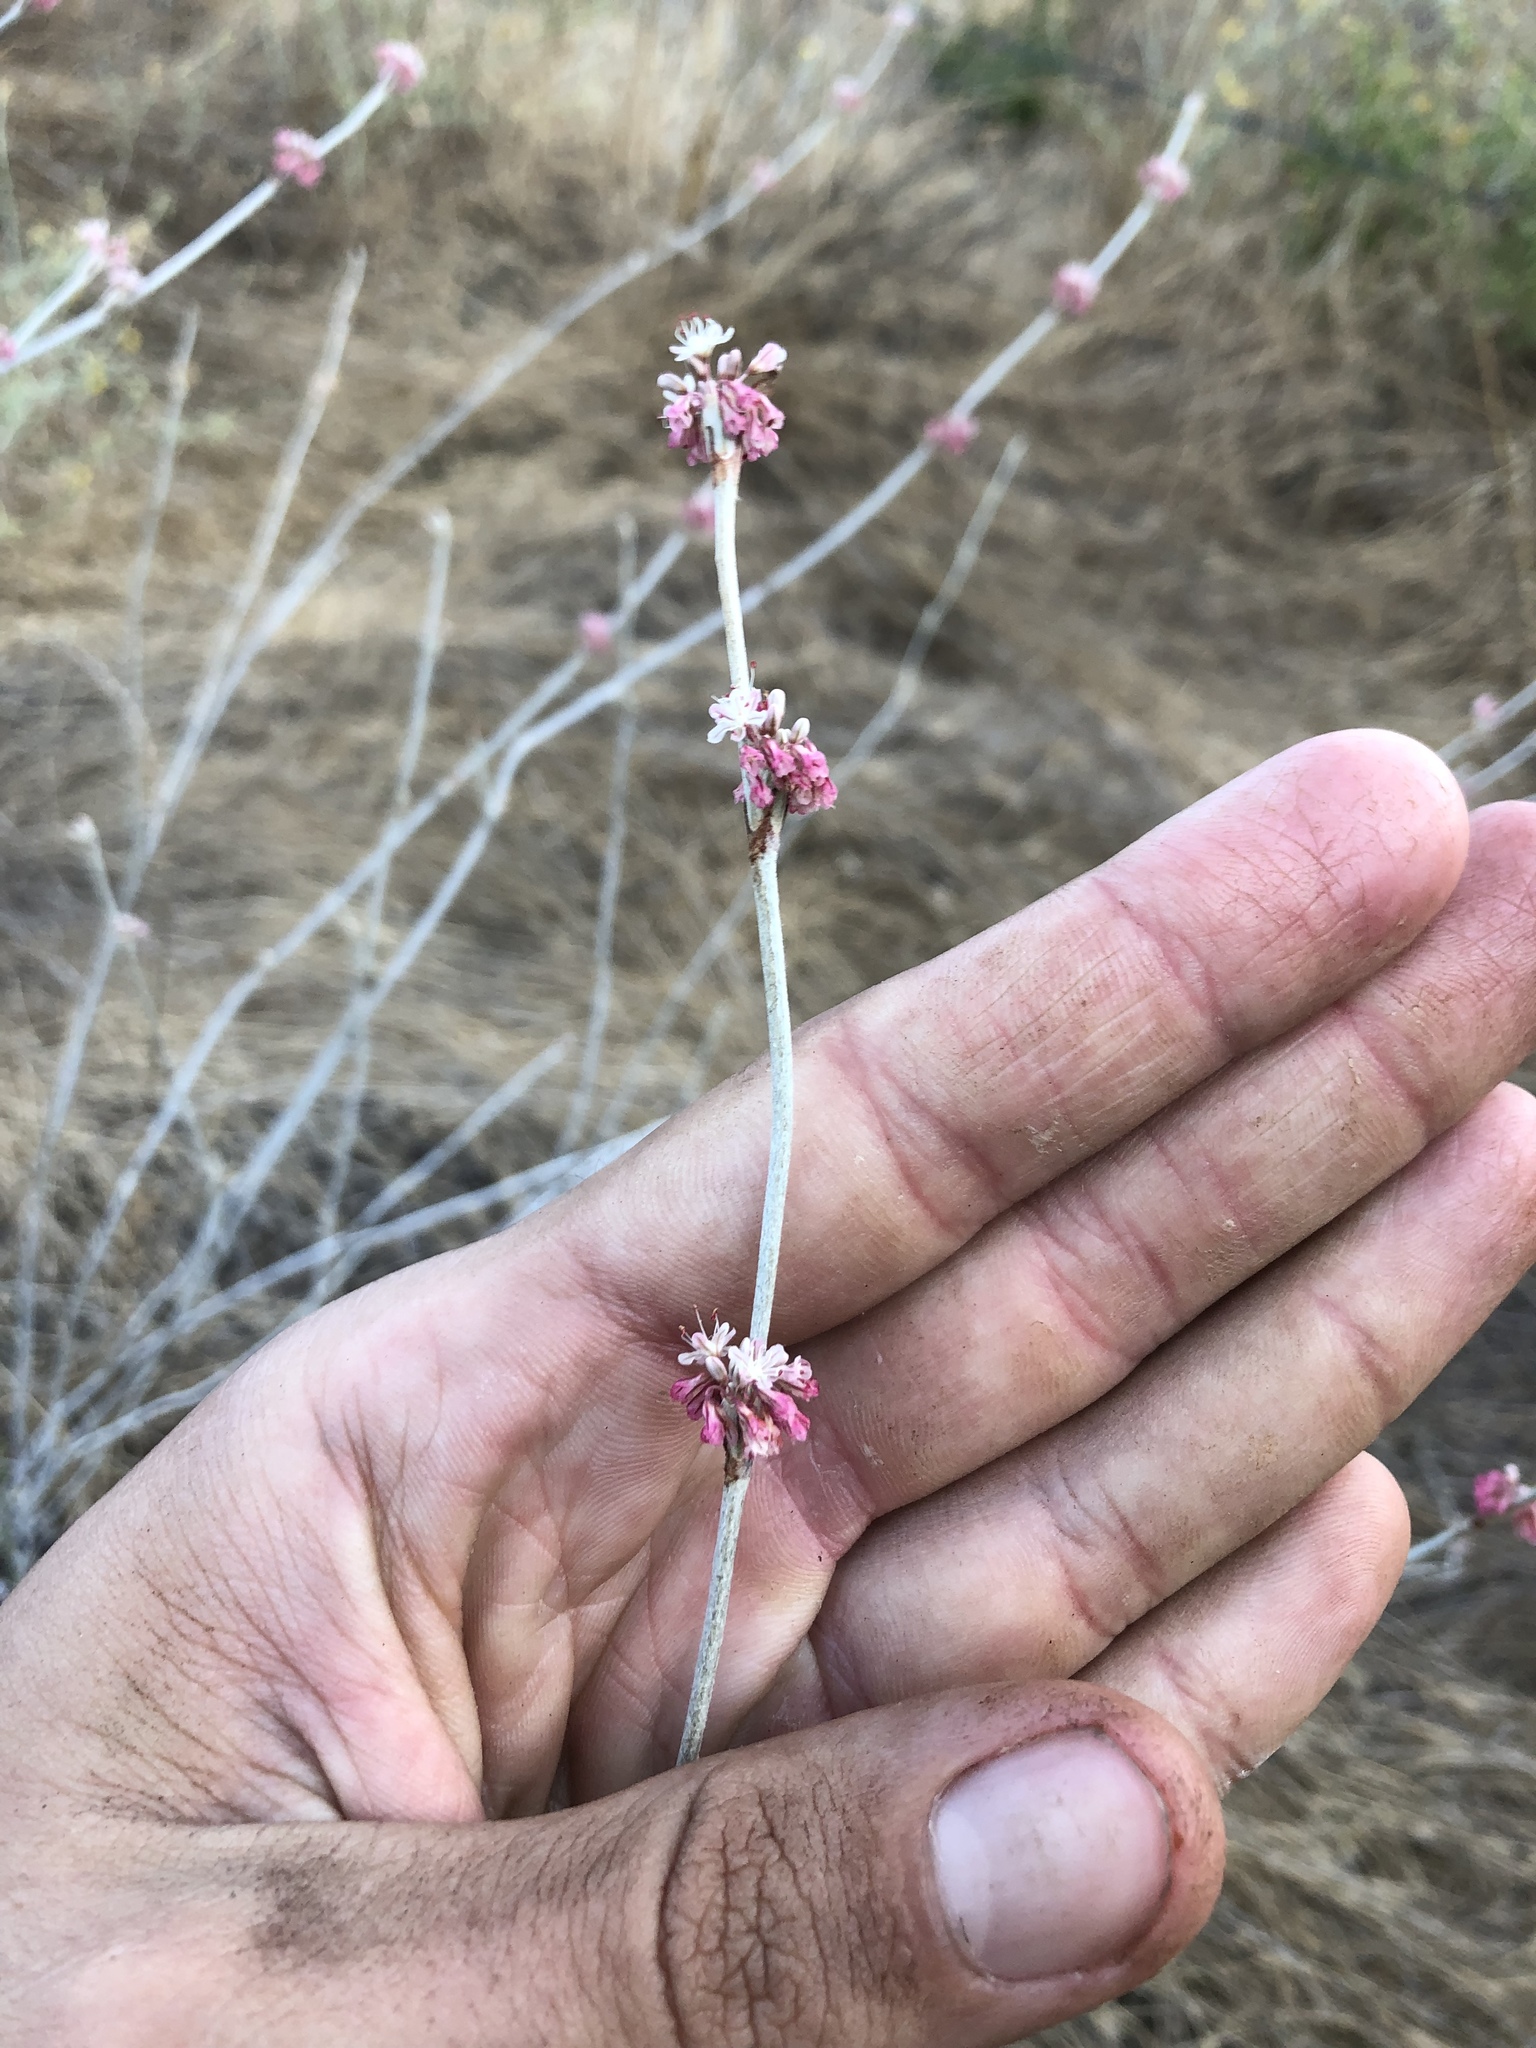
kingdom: Plantae
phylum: Tracheophyta
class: Magnoliopsida
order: Caryophyllales
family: Polygonaceae
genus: Eriogonum
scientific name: Eriogonum elongatum
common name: Long-stem wild buckwheat
